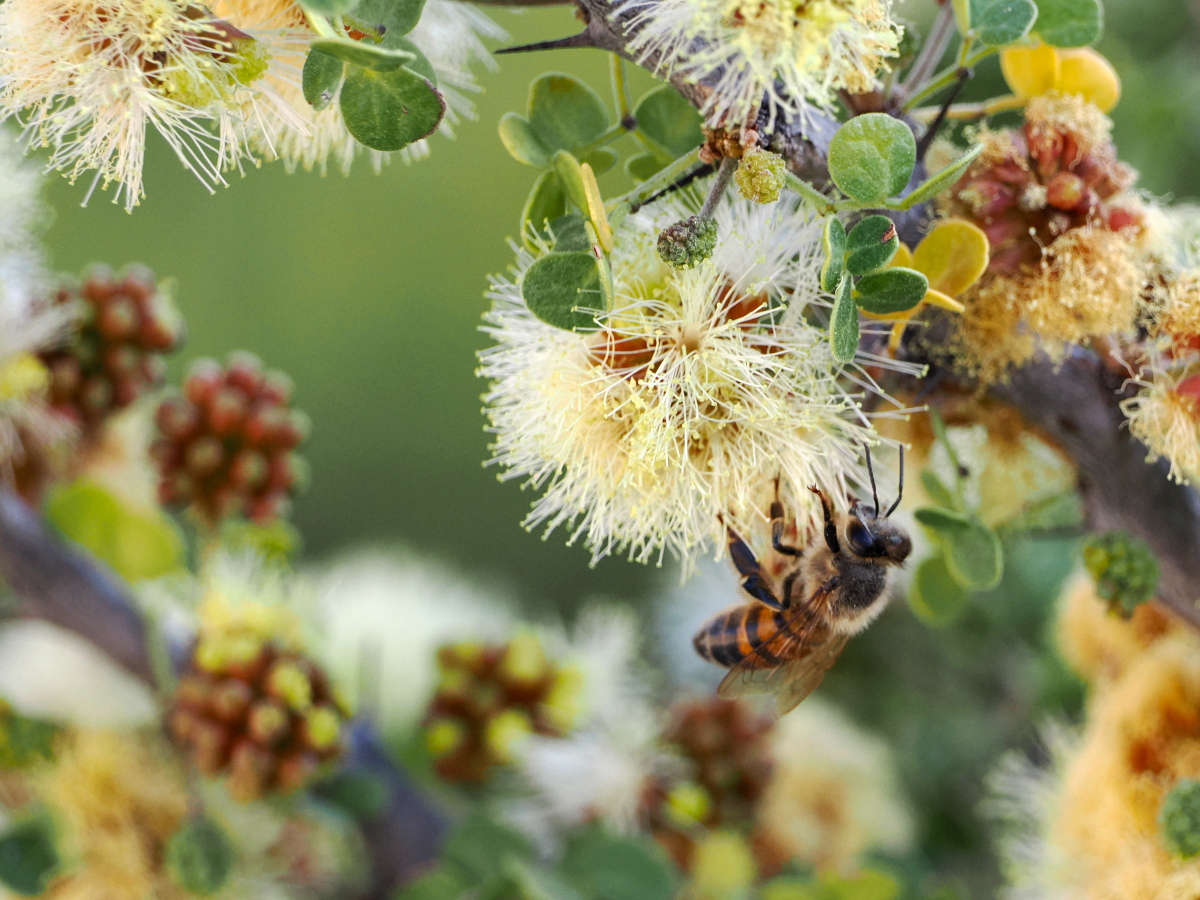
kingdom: Plantae
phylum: Tracheophyta
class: Magnoliopsida
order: Fabales
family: Fabaceae
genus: Ebenopsis
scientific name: Ebenopsis confinis
